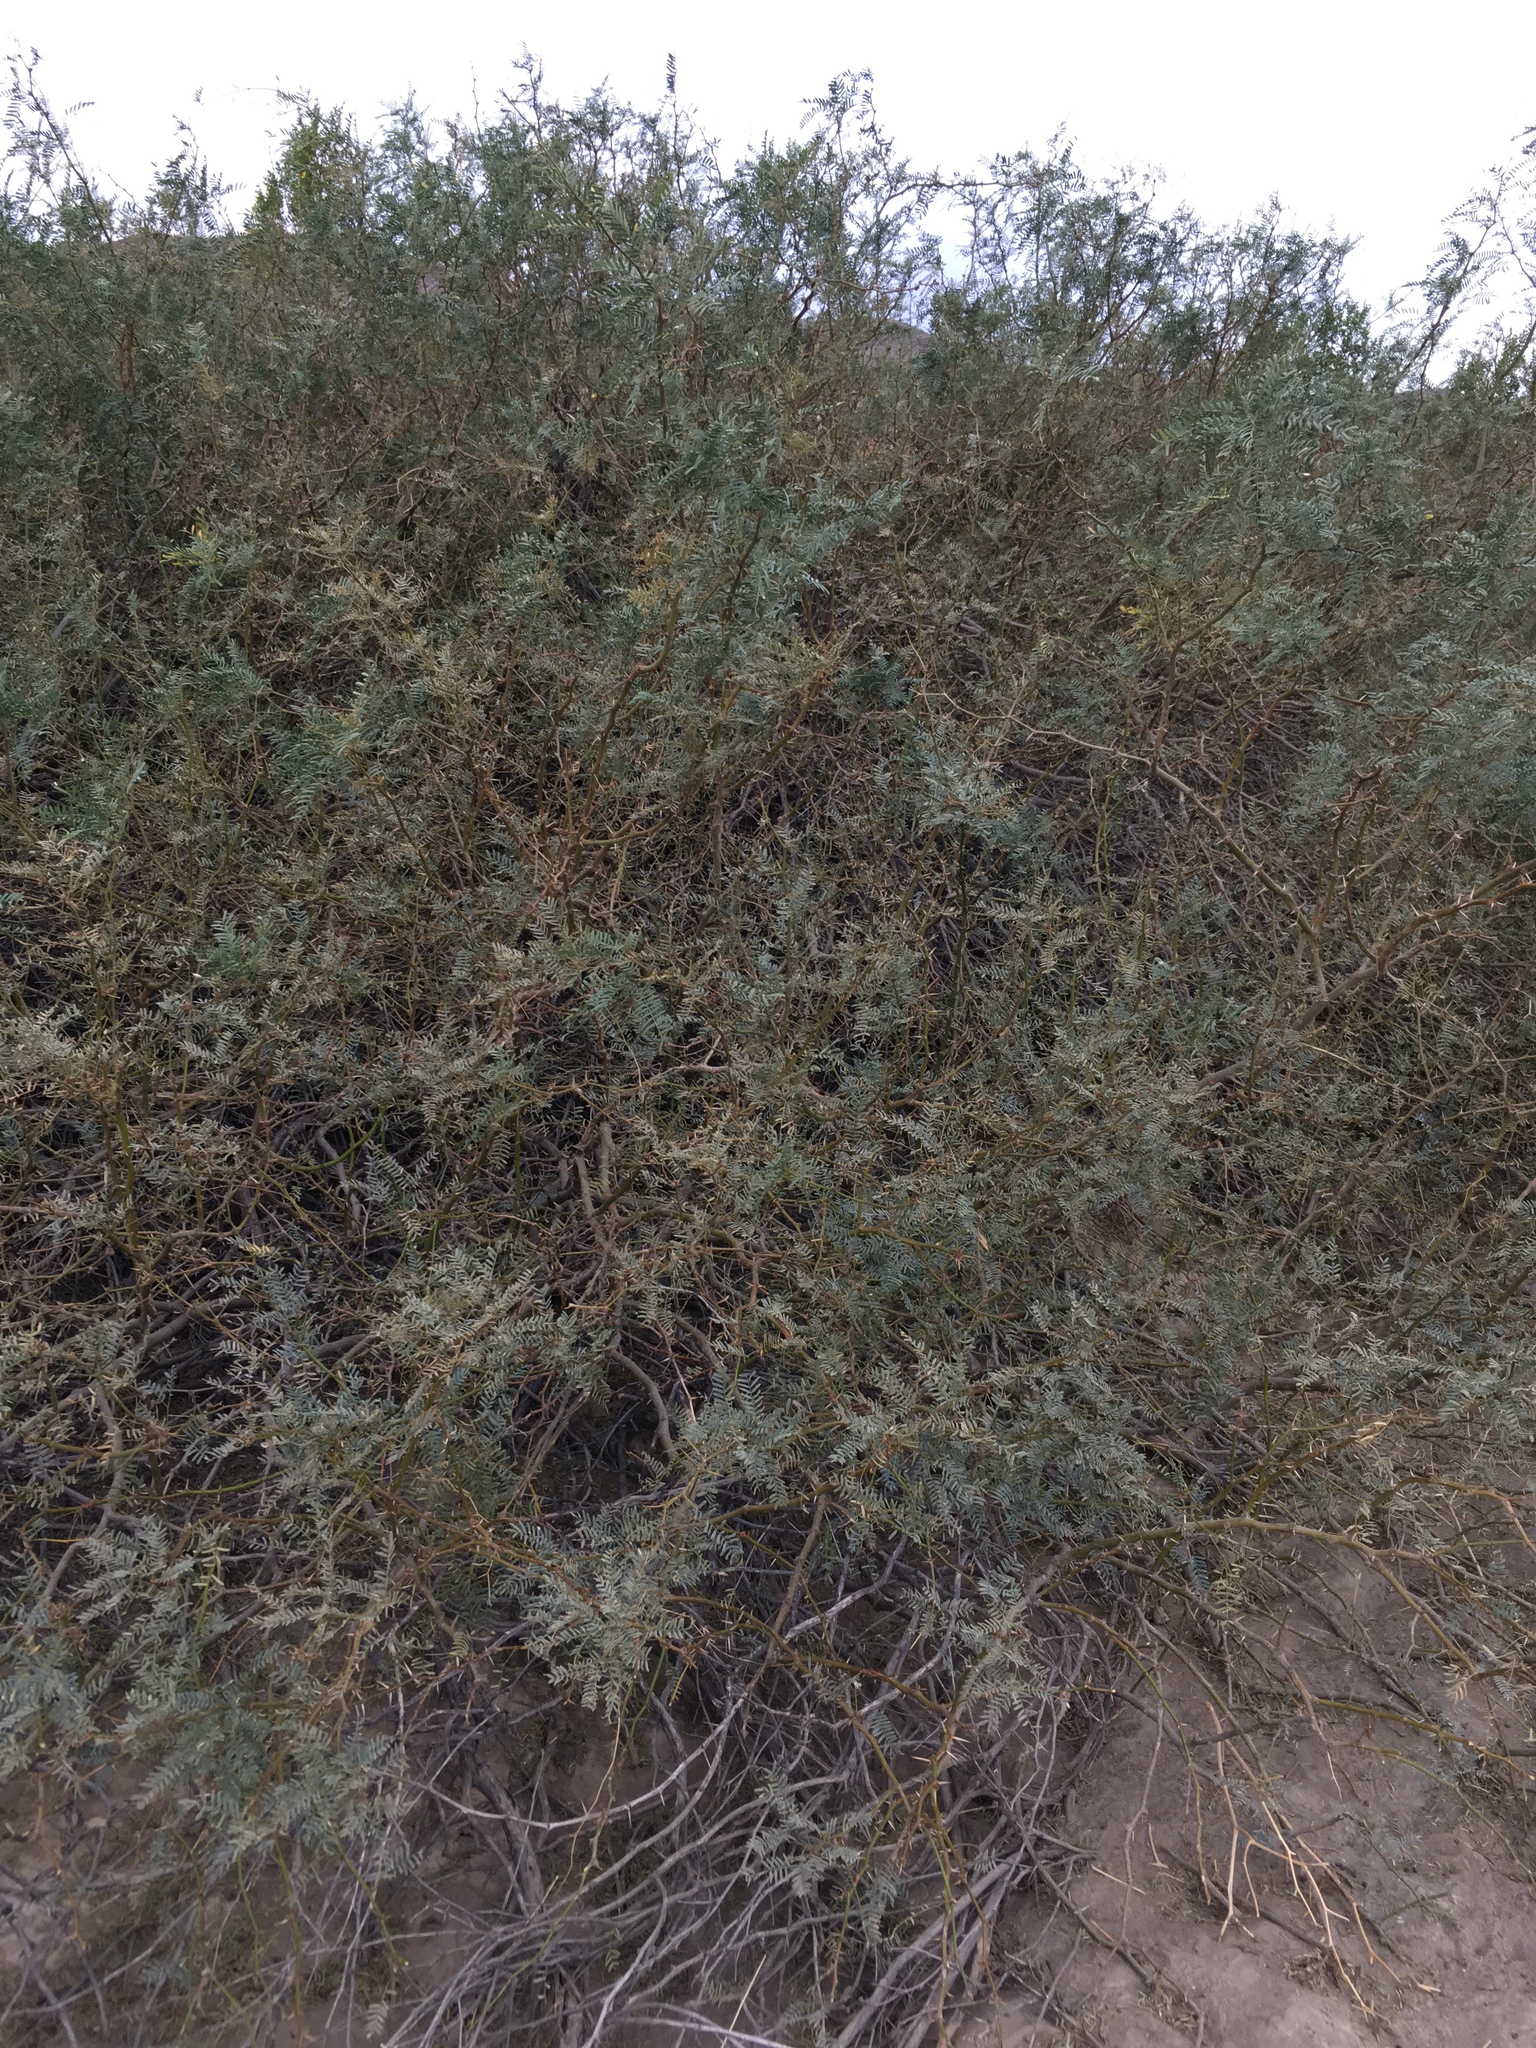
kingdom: Plantae
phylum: Tracheophyta
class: Magnoliopsida
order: Fabales
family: Fabaceae
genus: Prosopis
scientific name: Prosopis pubescens
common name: Screw-bean
